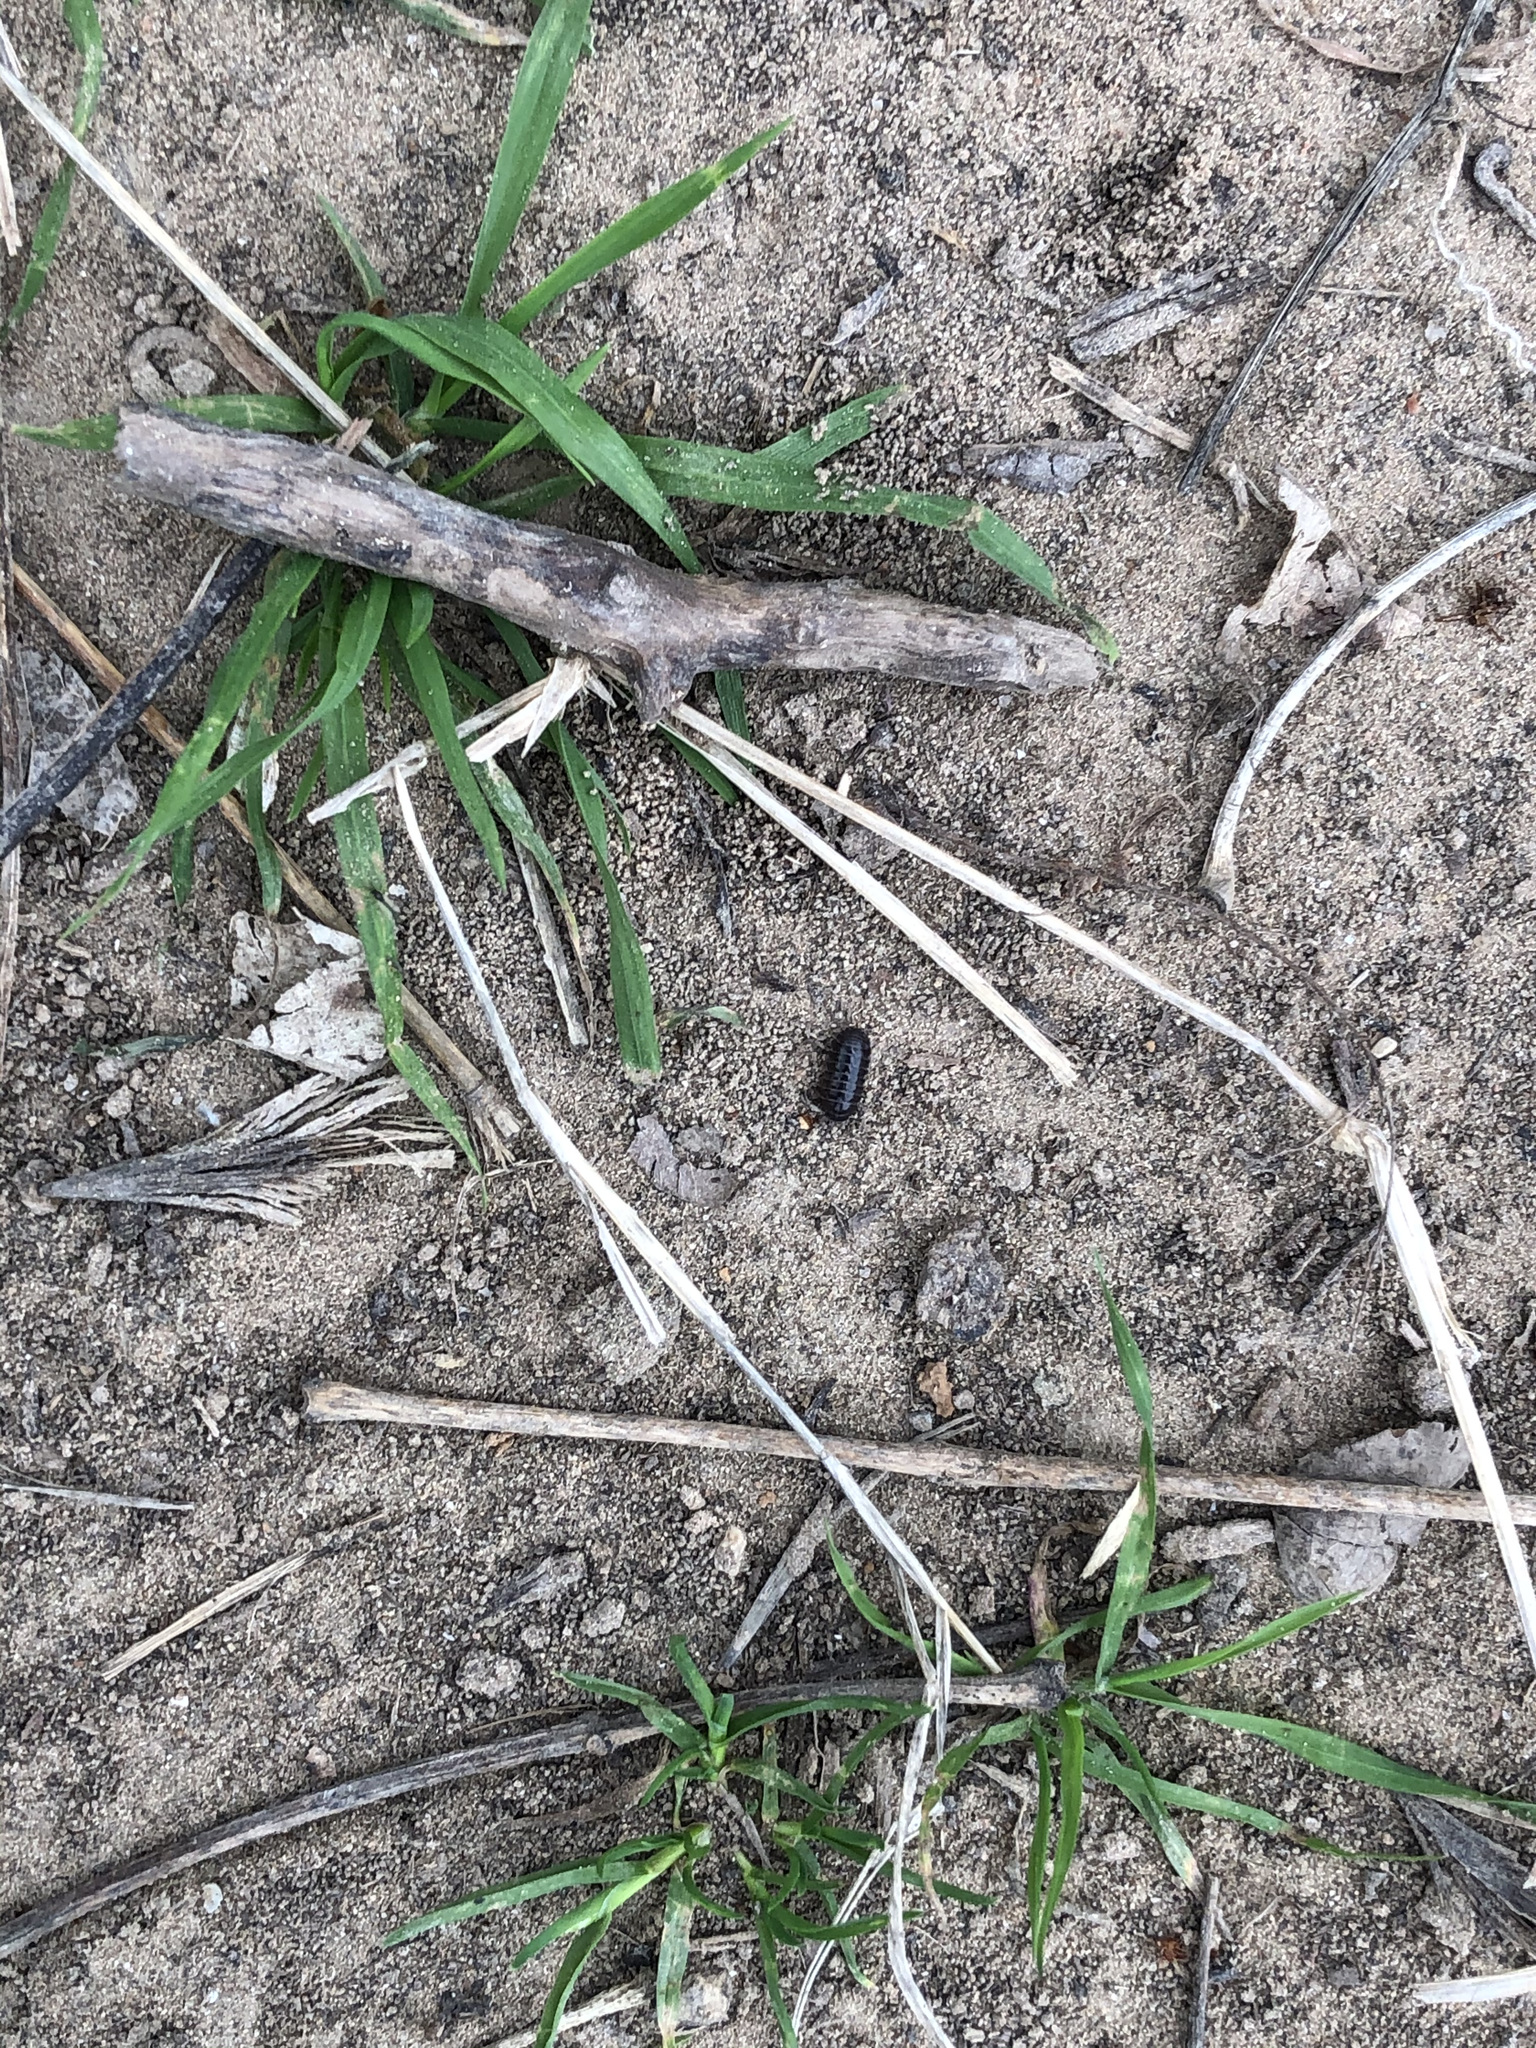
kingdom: Animalia
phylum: Arthropoda
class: Malacostraca
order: Isopoda
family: Armadillidiidae
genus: Armadillidium
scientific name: Armadillidium vulgare
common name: Common pill woodlouse
